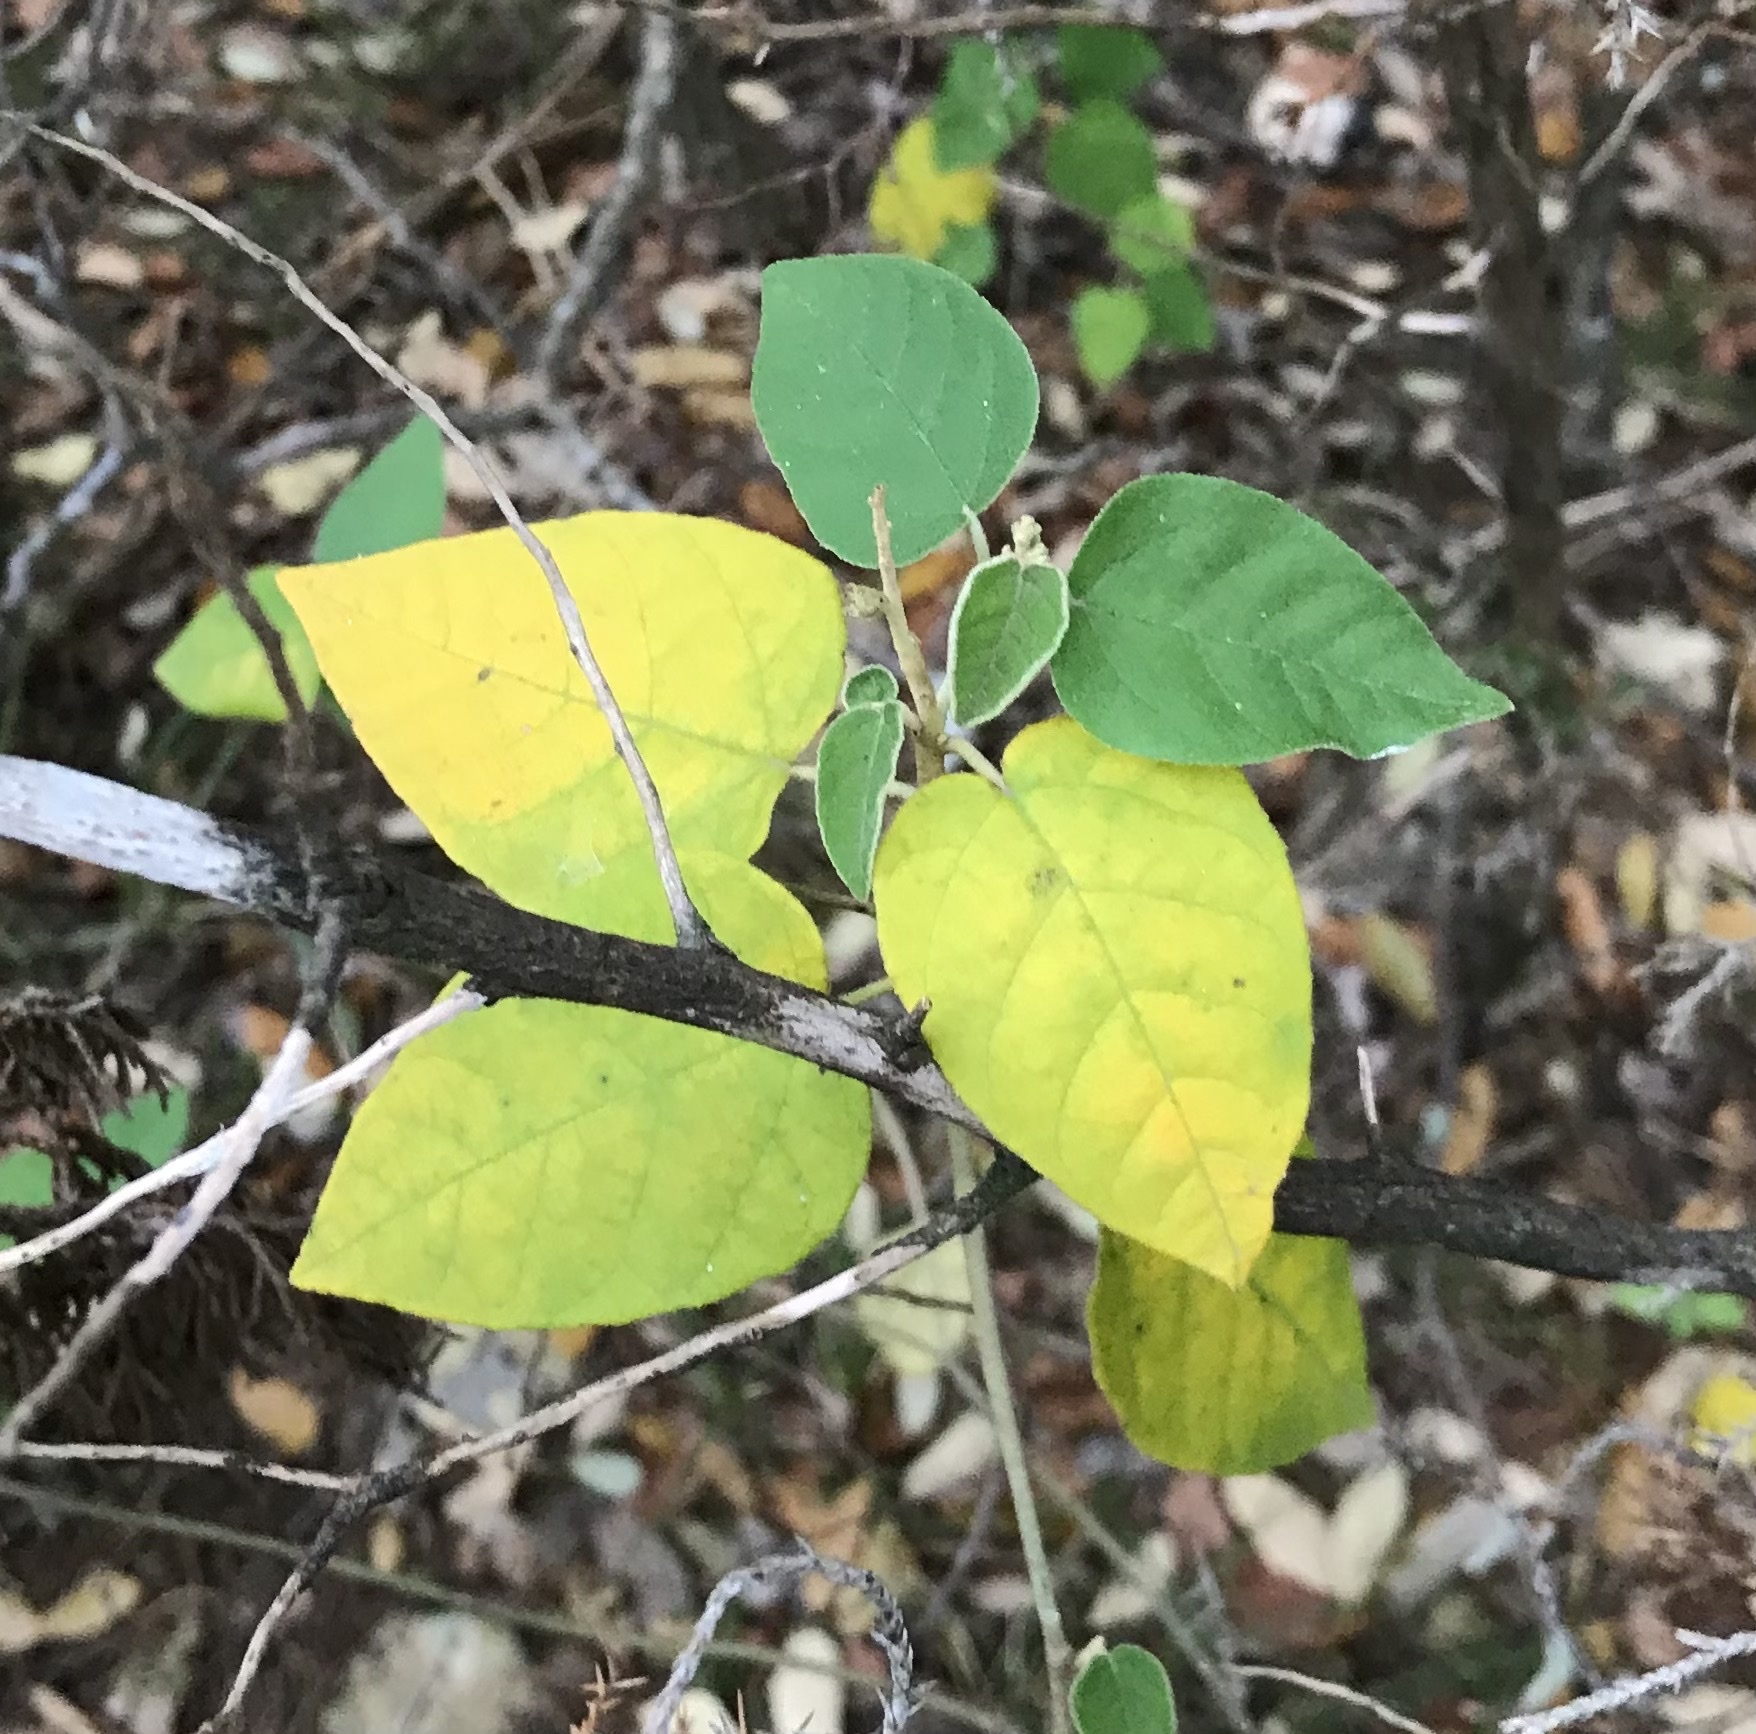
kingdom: Plantae
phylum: Tracheophyta
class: Magnoliopsida
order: Malpighiales
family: Euphorbiaceae
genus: Croton
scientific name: Croton fruticulosus
